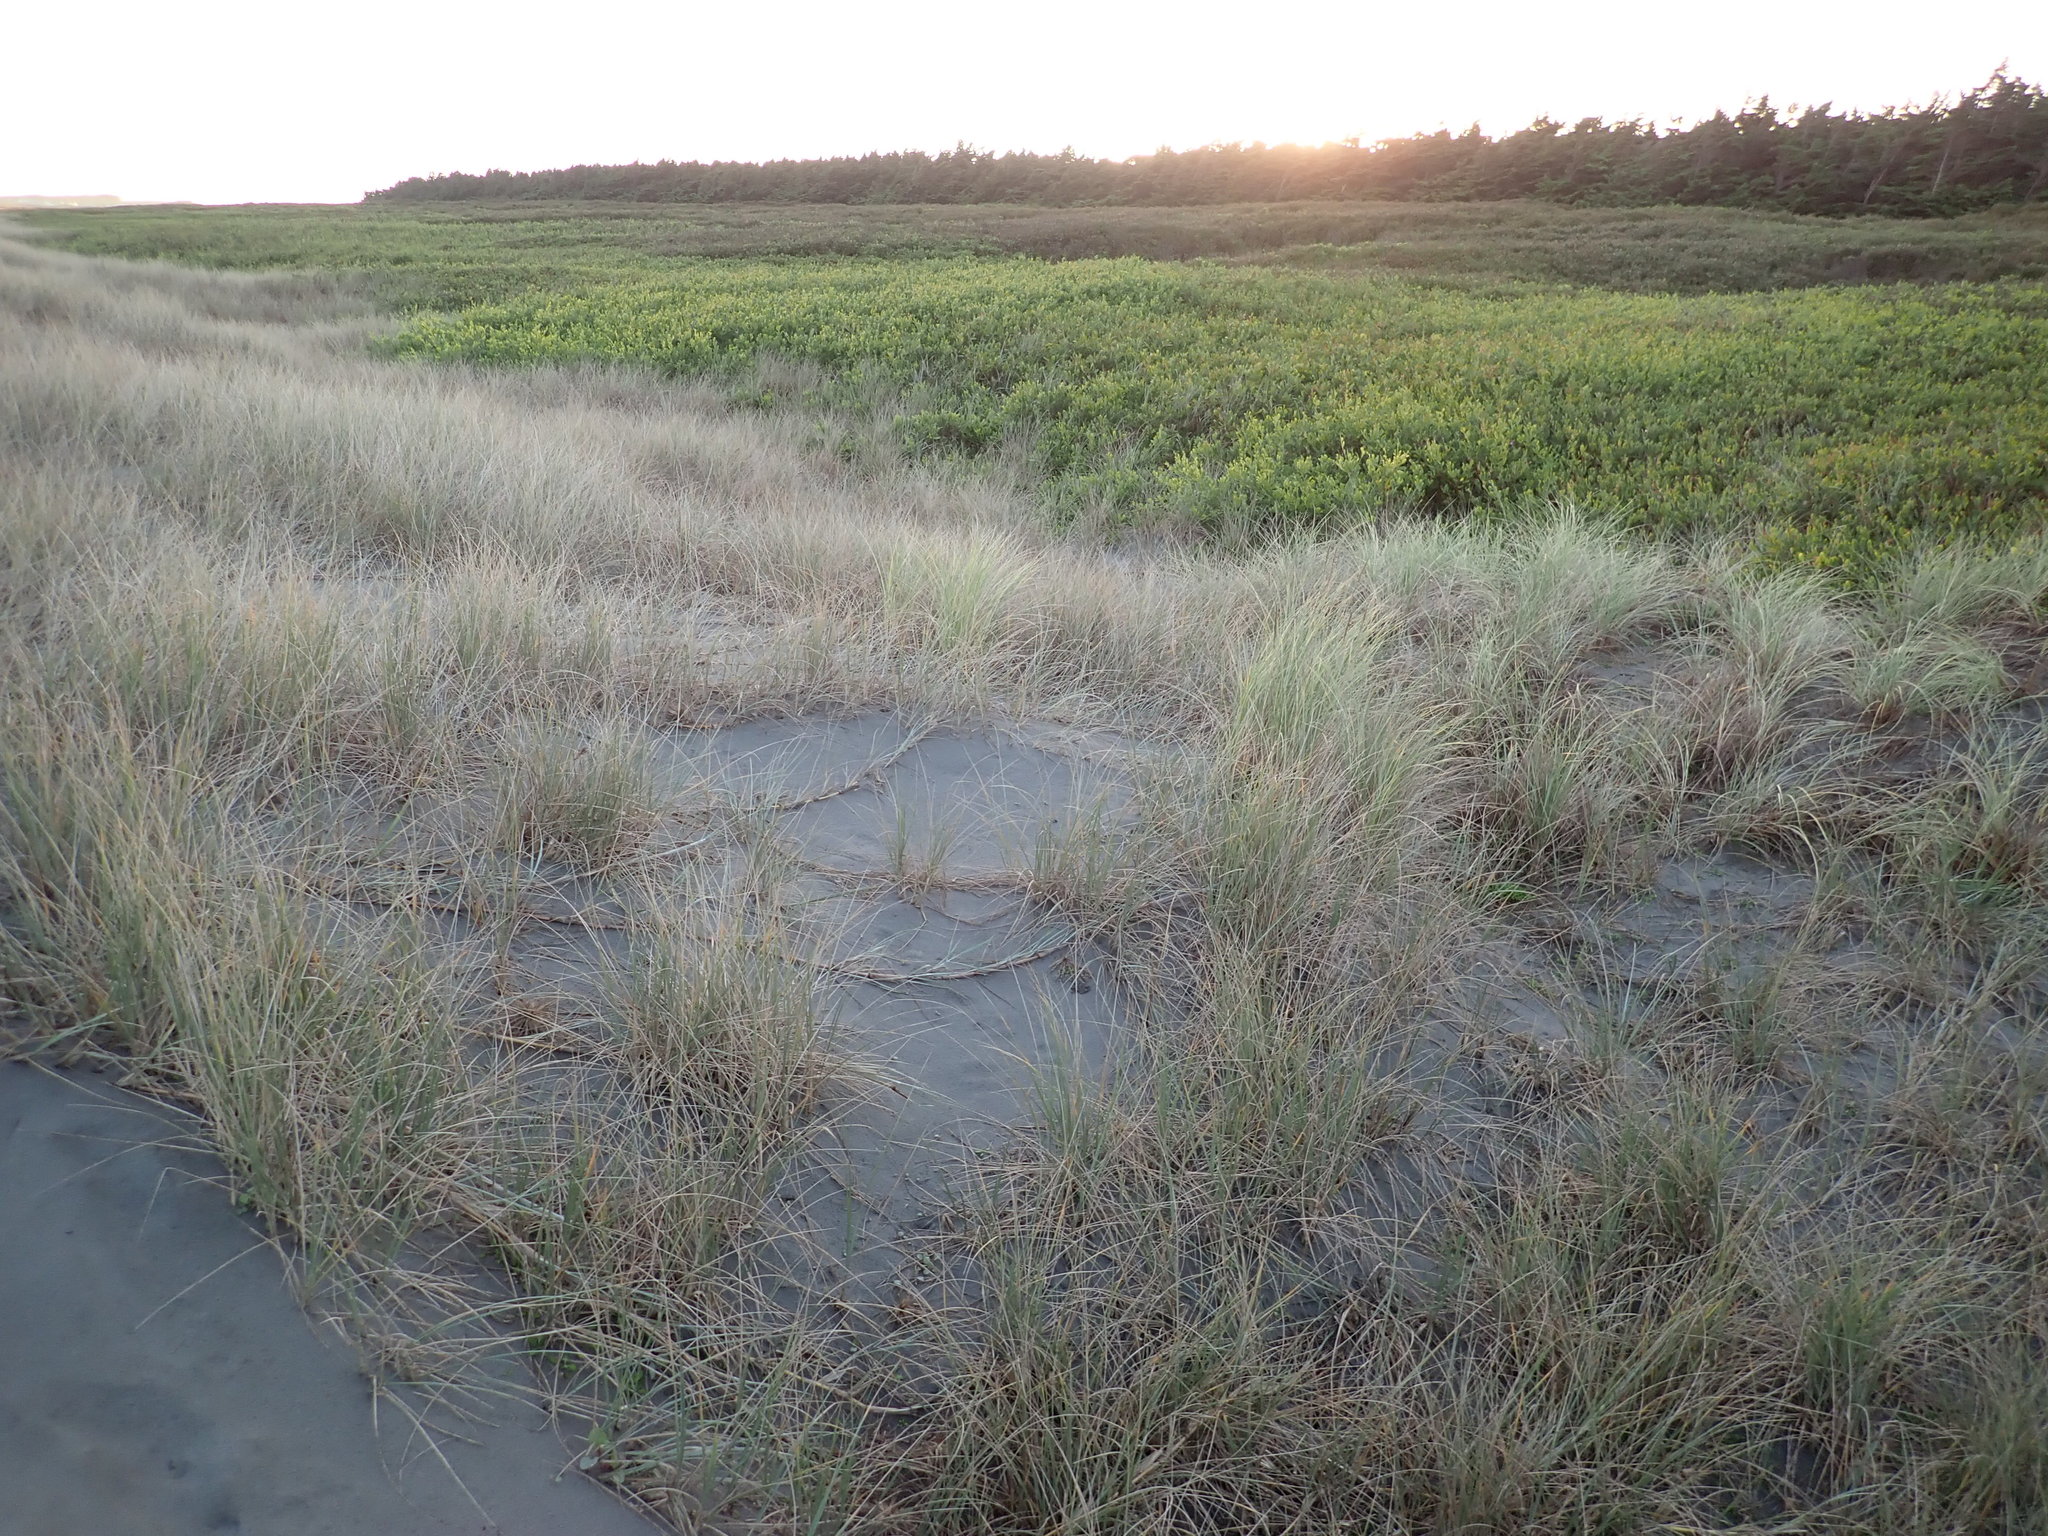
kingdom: Plantae
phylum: Tracheophyta
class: Liliopsida
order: Poales
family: Poaceae
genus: Calamagrostis
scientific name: Calamagrostis arenaria
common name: European beachgrass
